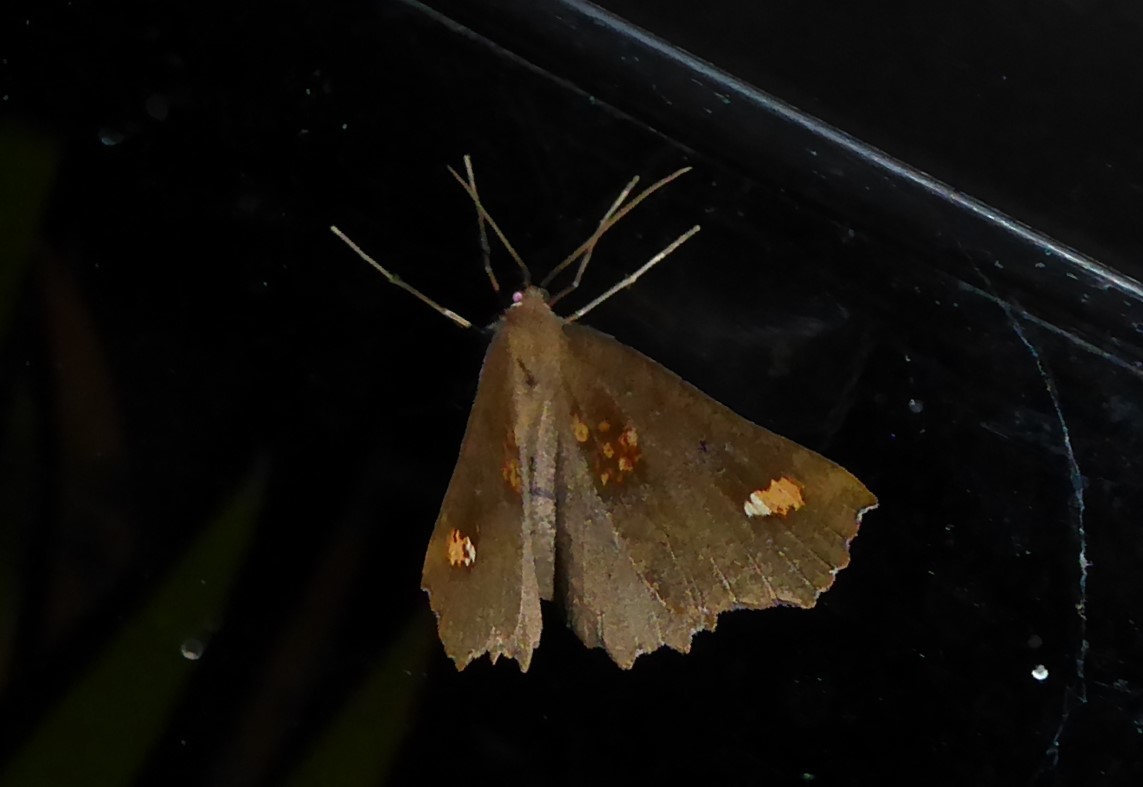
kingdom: Animalia
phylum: Arthropoda
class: Insecta
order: Lepidoptera
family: Geometridae
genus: Xyridacma
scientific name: Xyridacma ustaria
